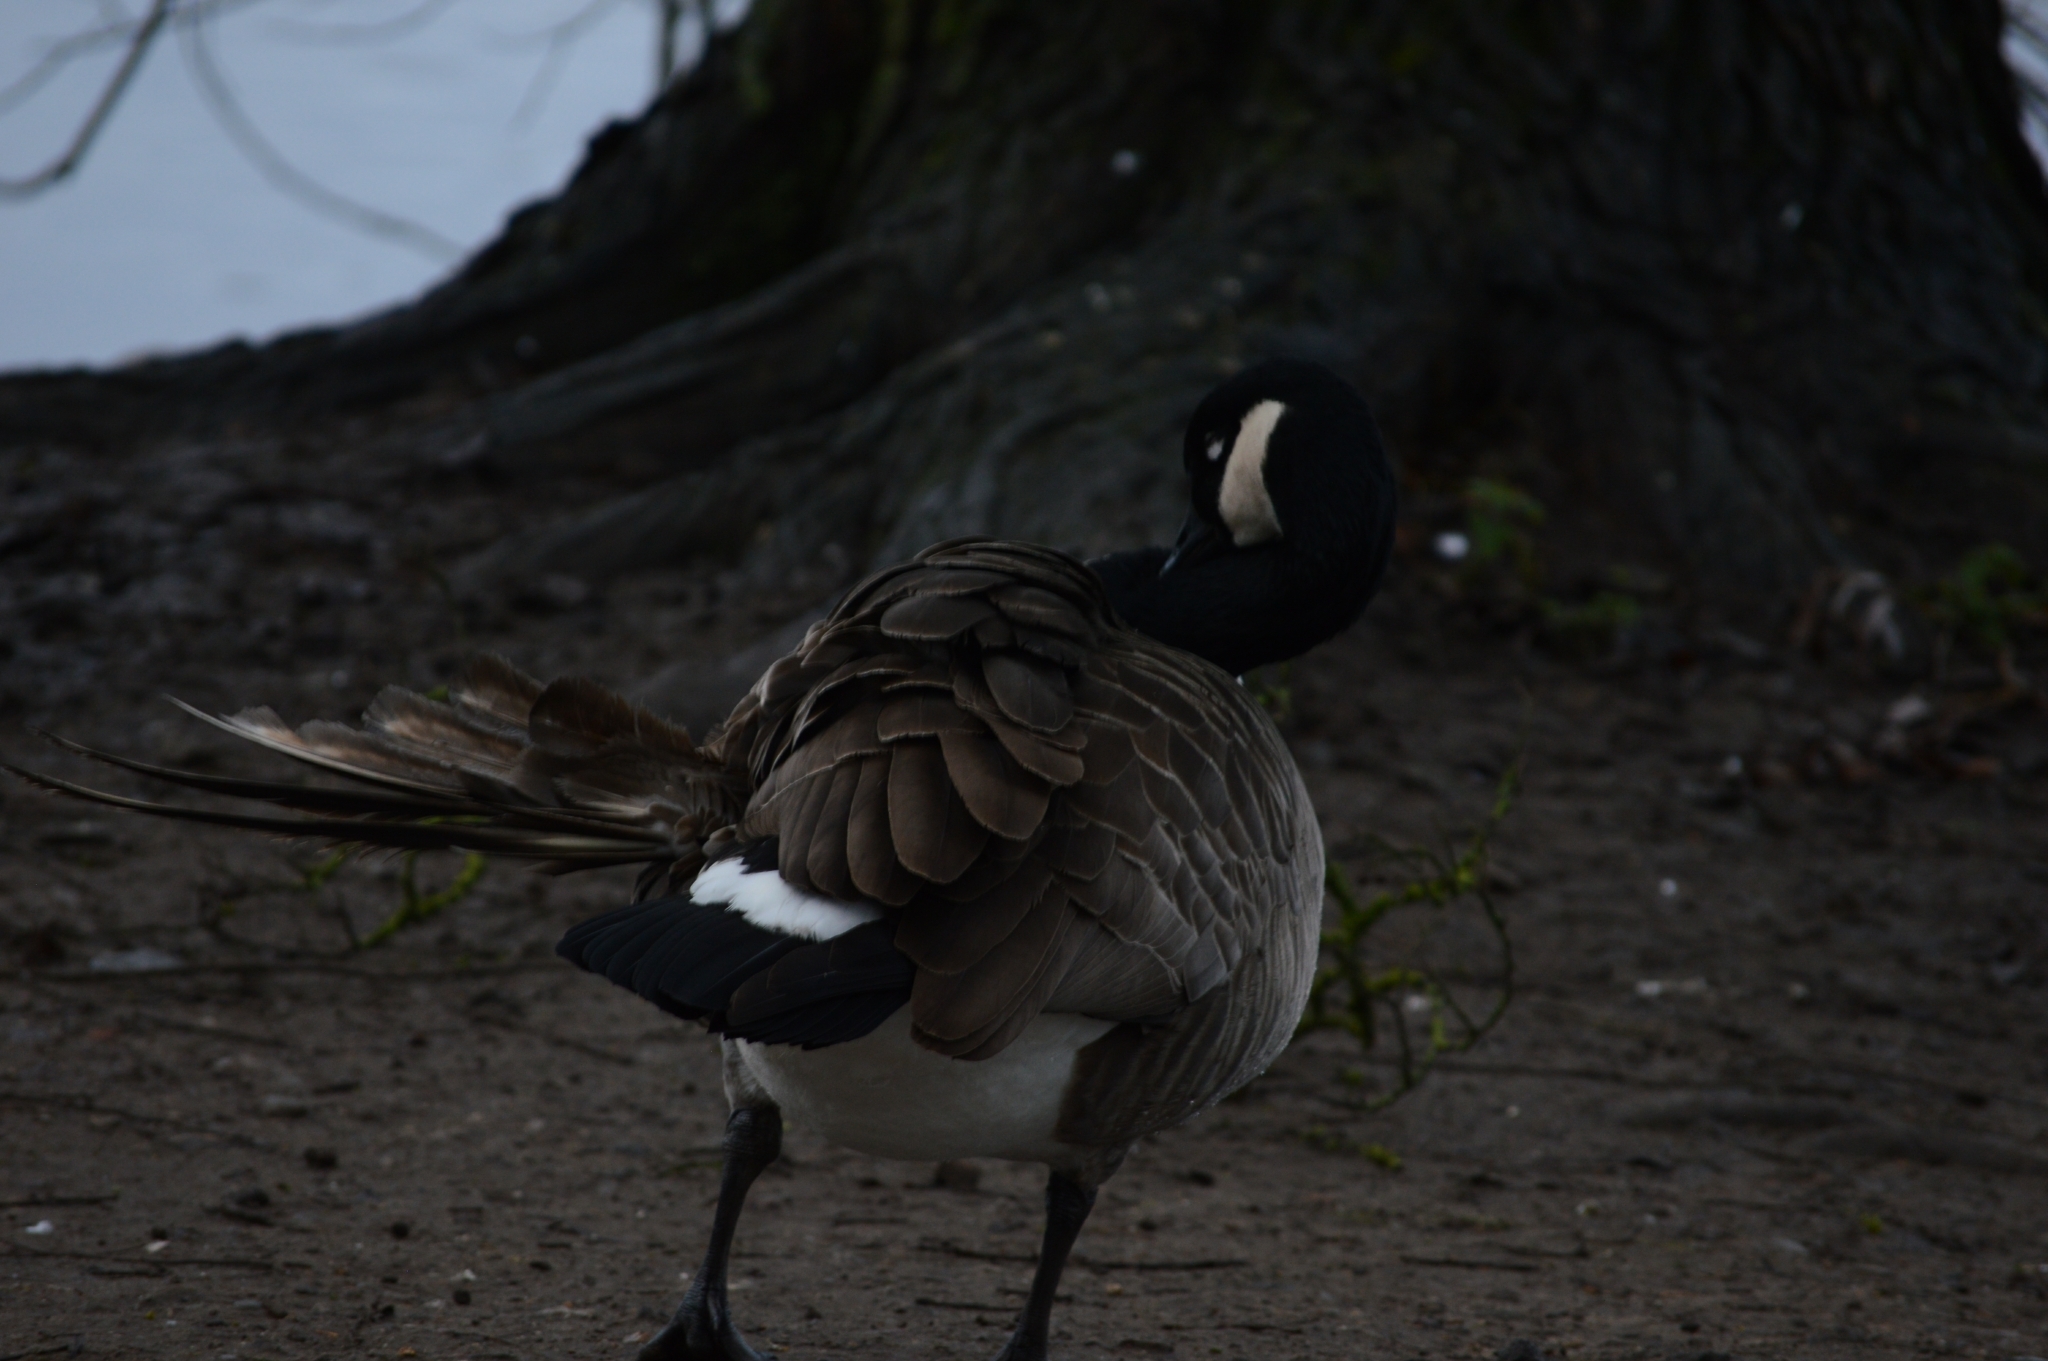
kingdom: Animalia
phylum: Chordata
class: Aves
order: Anseriformes
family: Anatidae
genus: Branta
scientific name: Branta canadensis
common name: Canada goose
